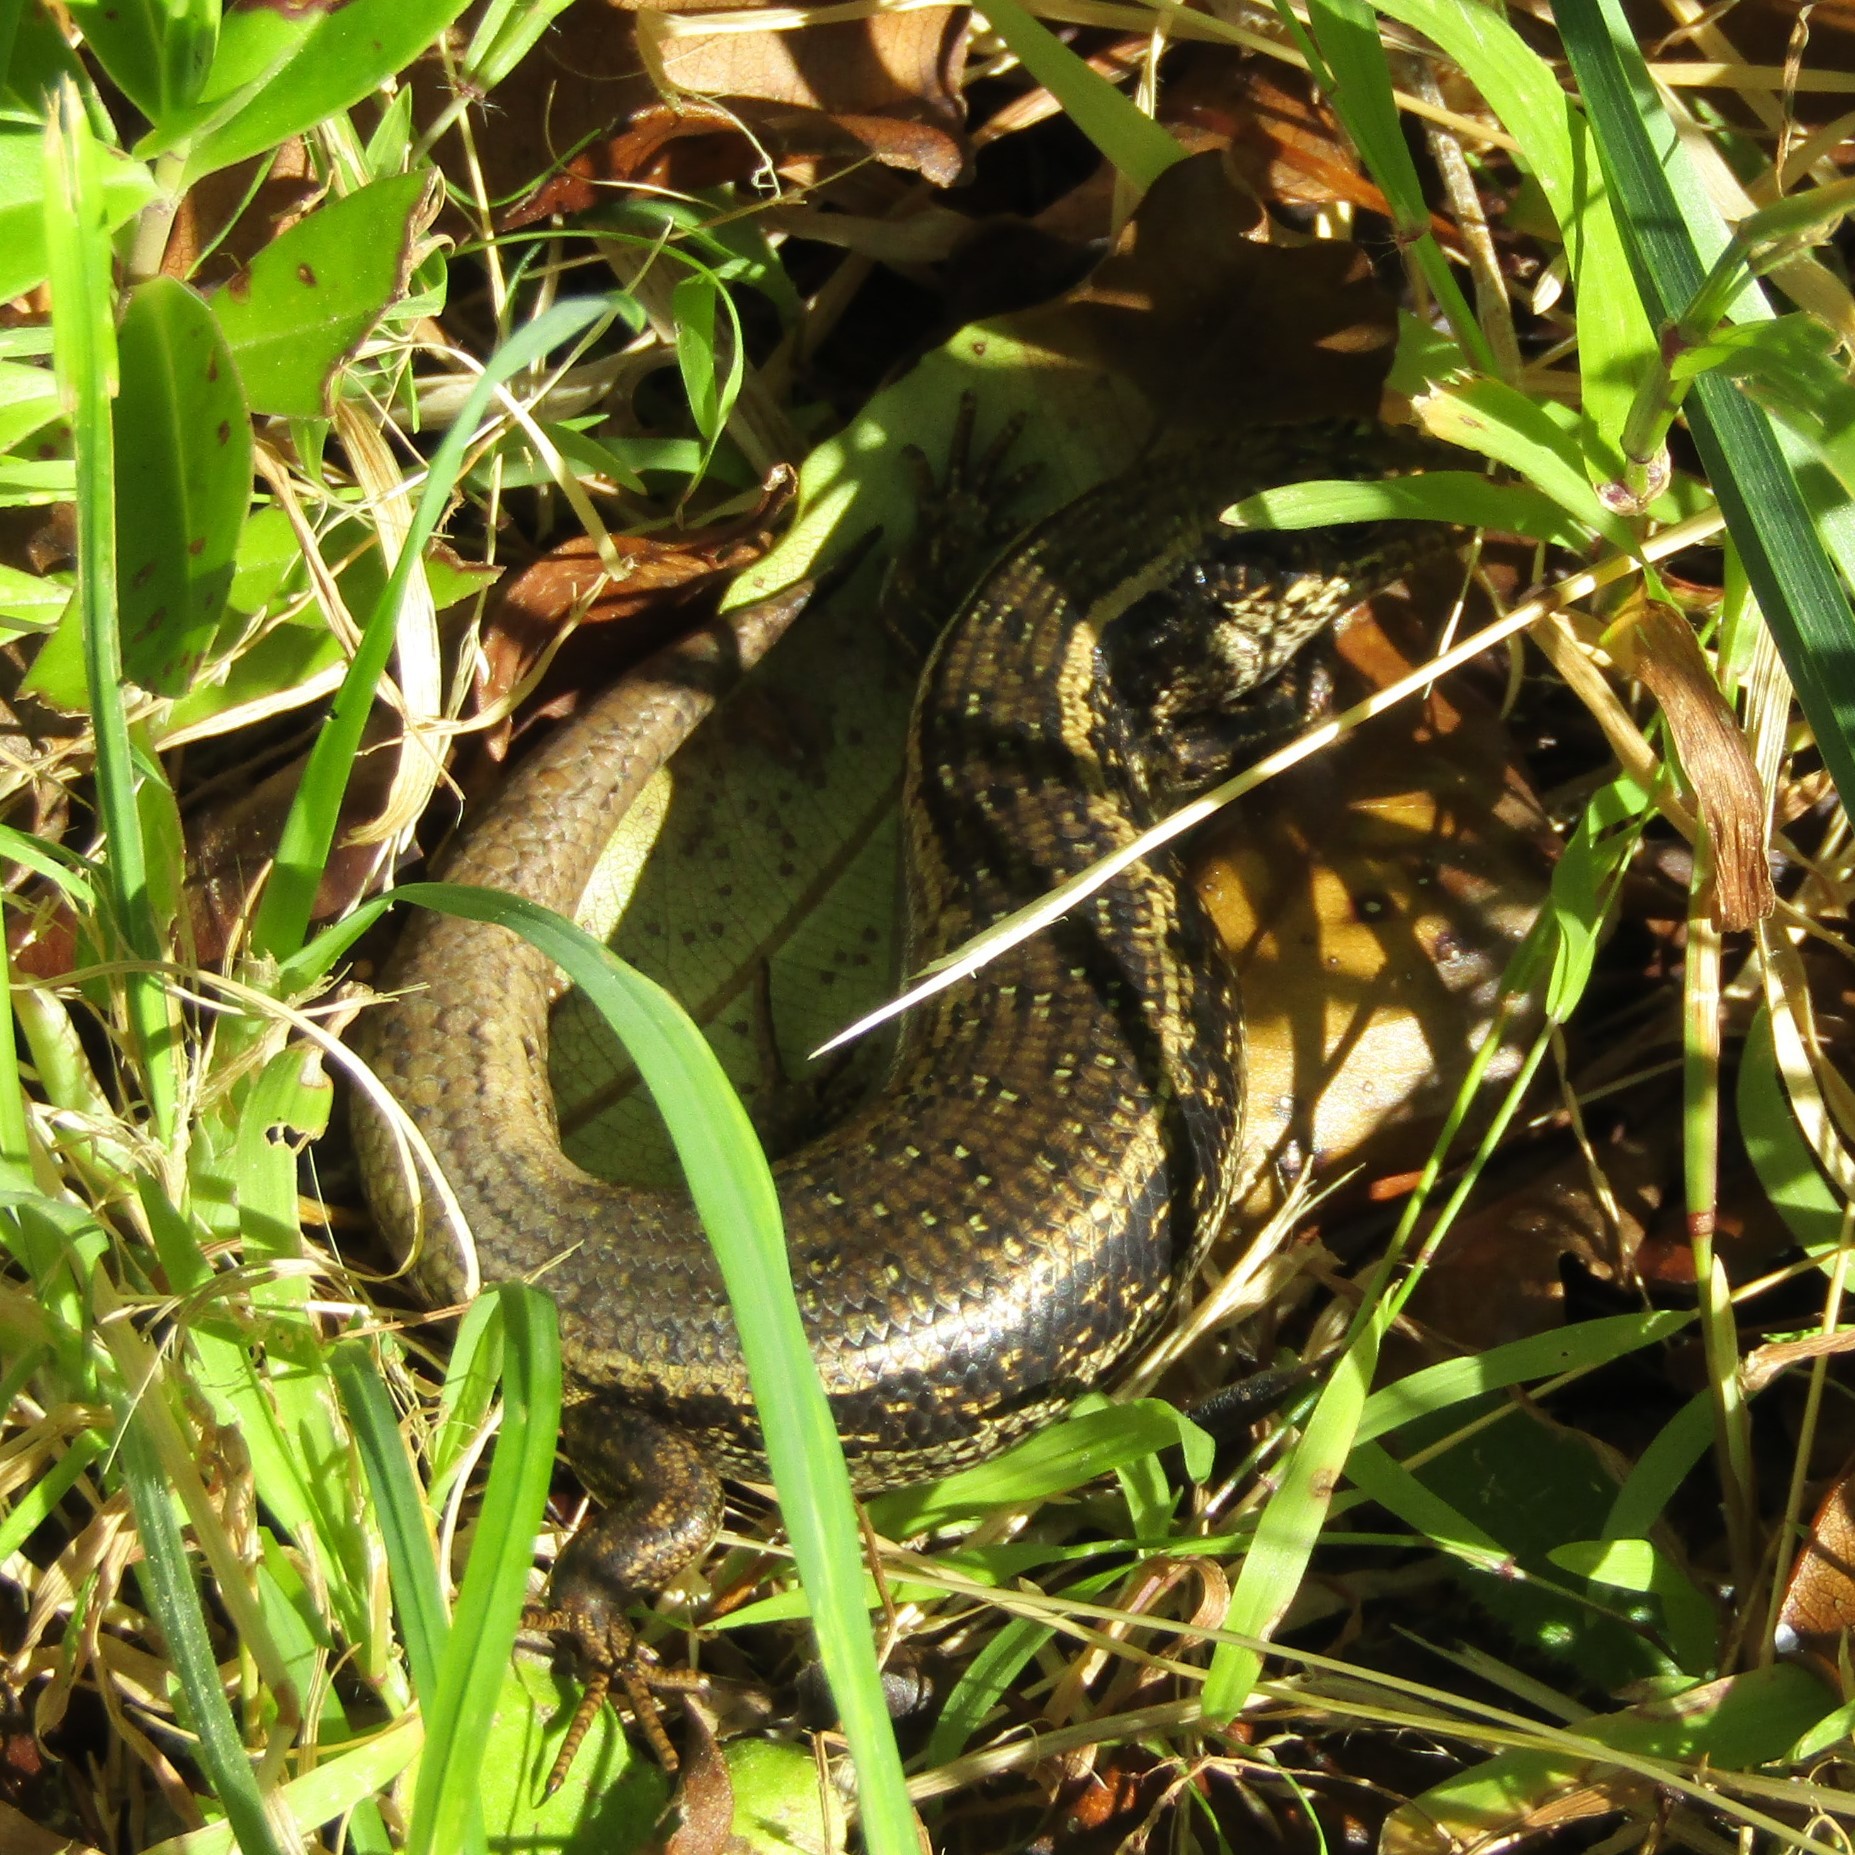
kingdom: Animalia
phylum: Chordata
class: Squamata
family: Scincidae
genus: Oligosoma
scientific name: Oligosoma kokowai
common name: Northern spotted skink
